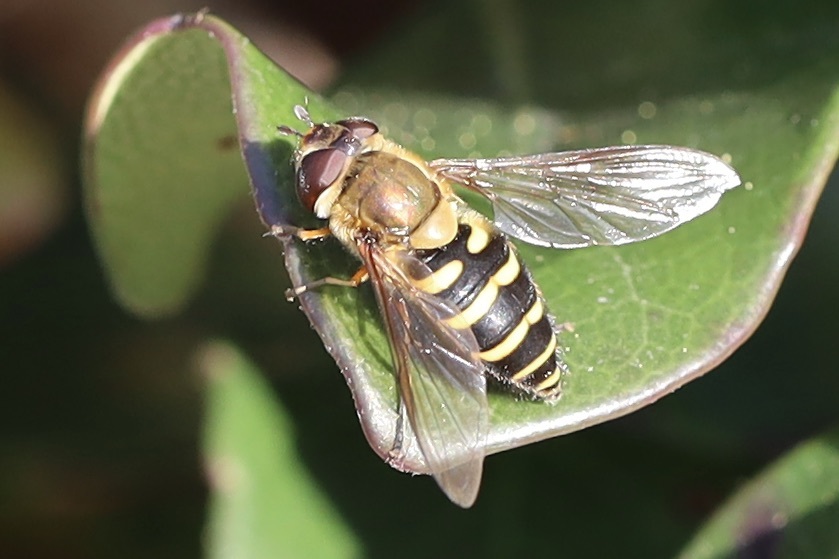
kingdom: Animalia
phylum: Arthropoda
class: Insecta
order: Diptera
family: Syrphidae
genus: Syrphus
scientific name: Syrphus torvus
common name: Hairy-eyed flower fly
